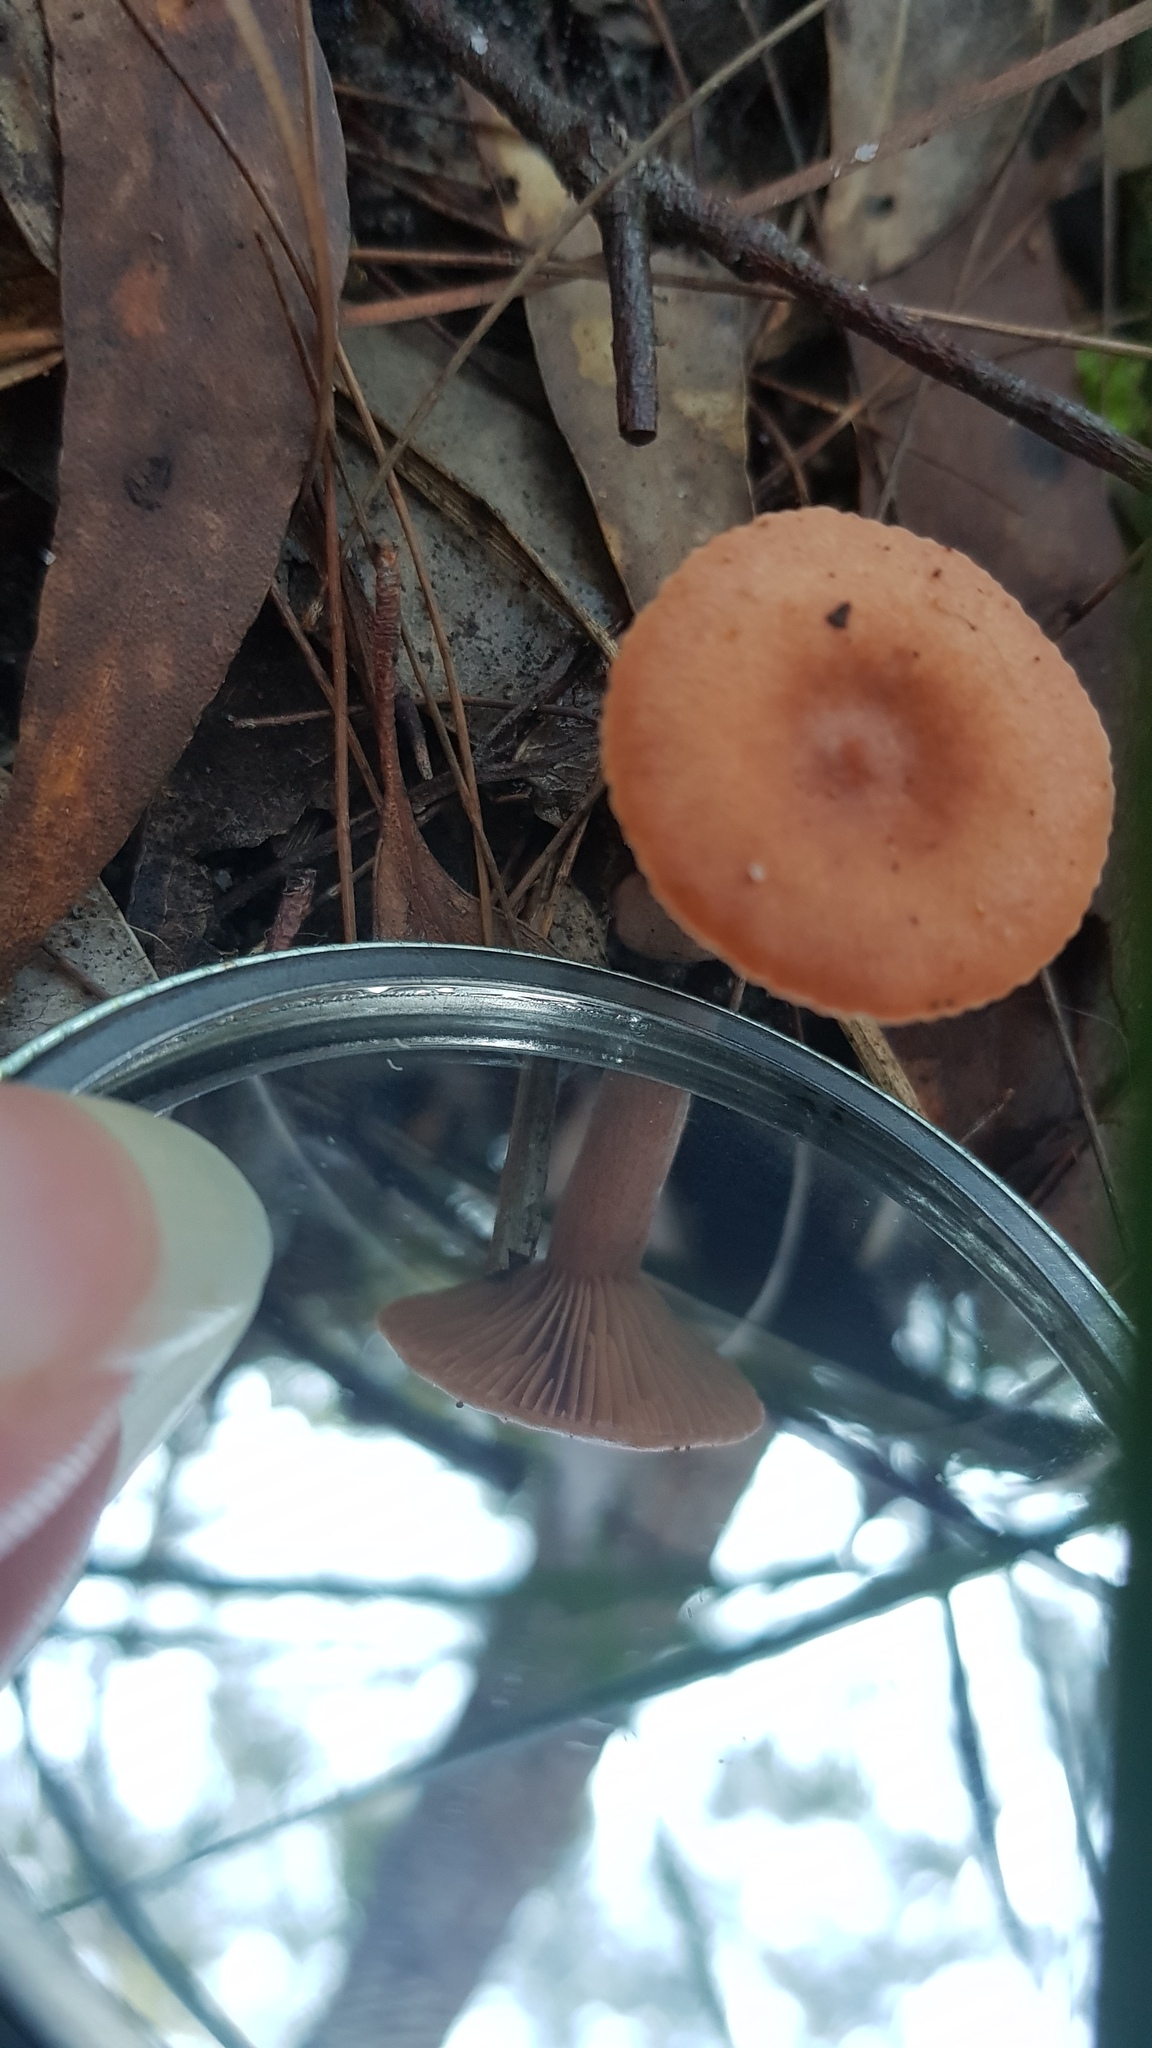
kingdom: Fungi
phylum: Basidiomycota
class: Agaricomycetes
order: Russulales
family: Russulaceae
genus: Lactarius
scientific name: Lactarius eucalypti
